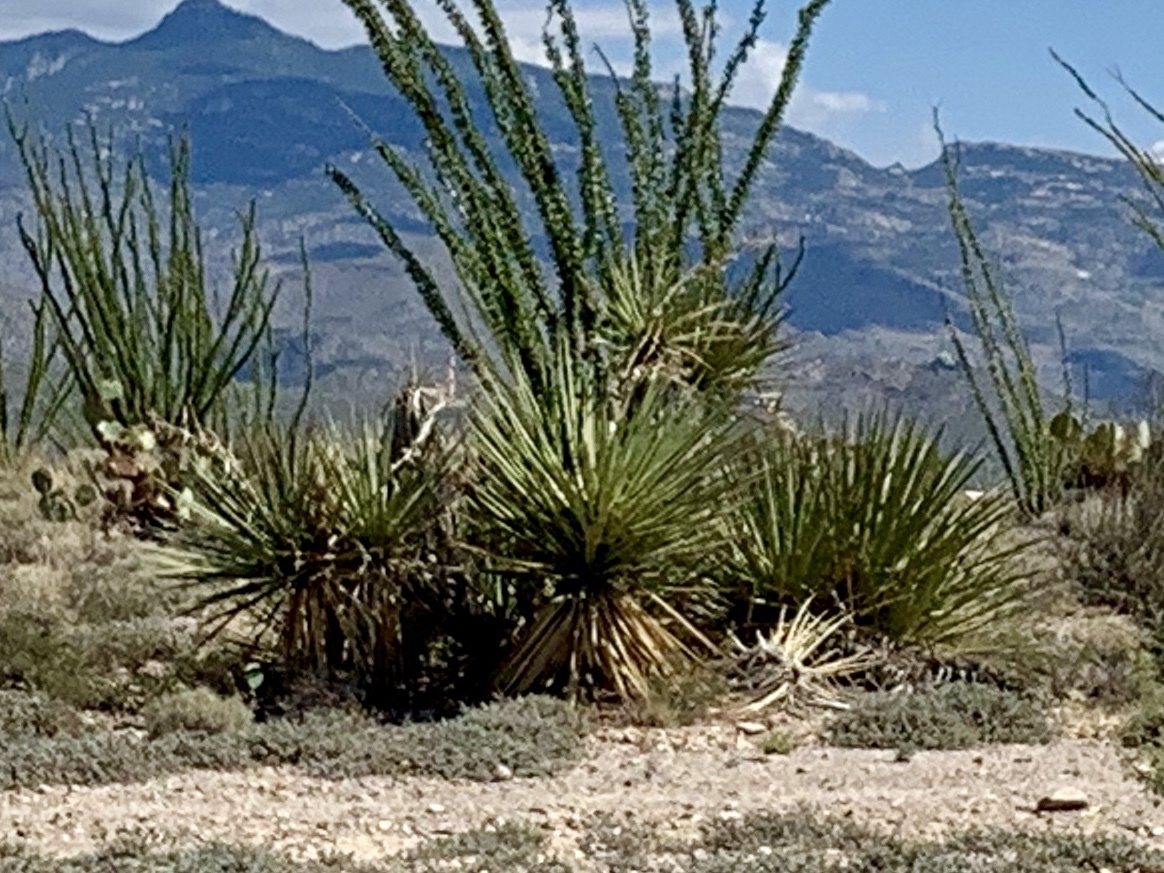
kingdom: Plantae
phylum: Tracheophyta
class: Liliopsida
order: Asparagales
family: Asparagaceae
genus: Yucca
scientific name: Yucca baccata
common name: Banana yucca
